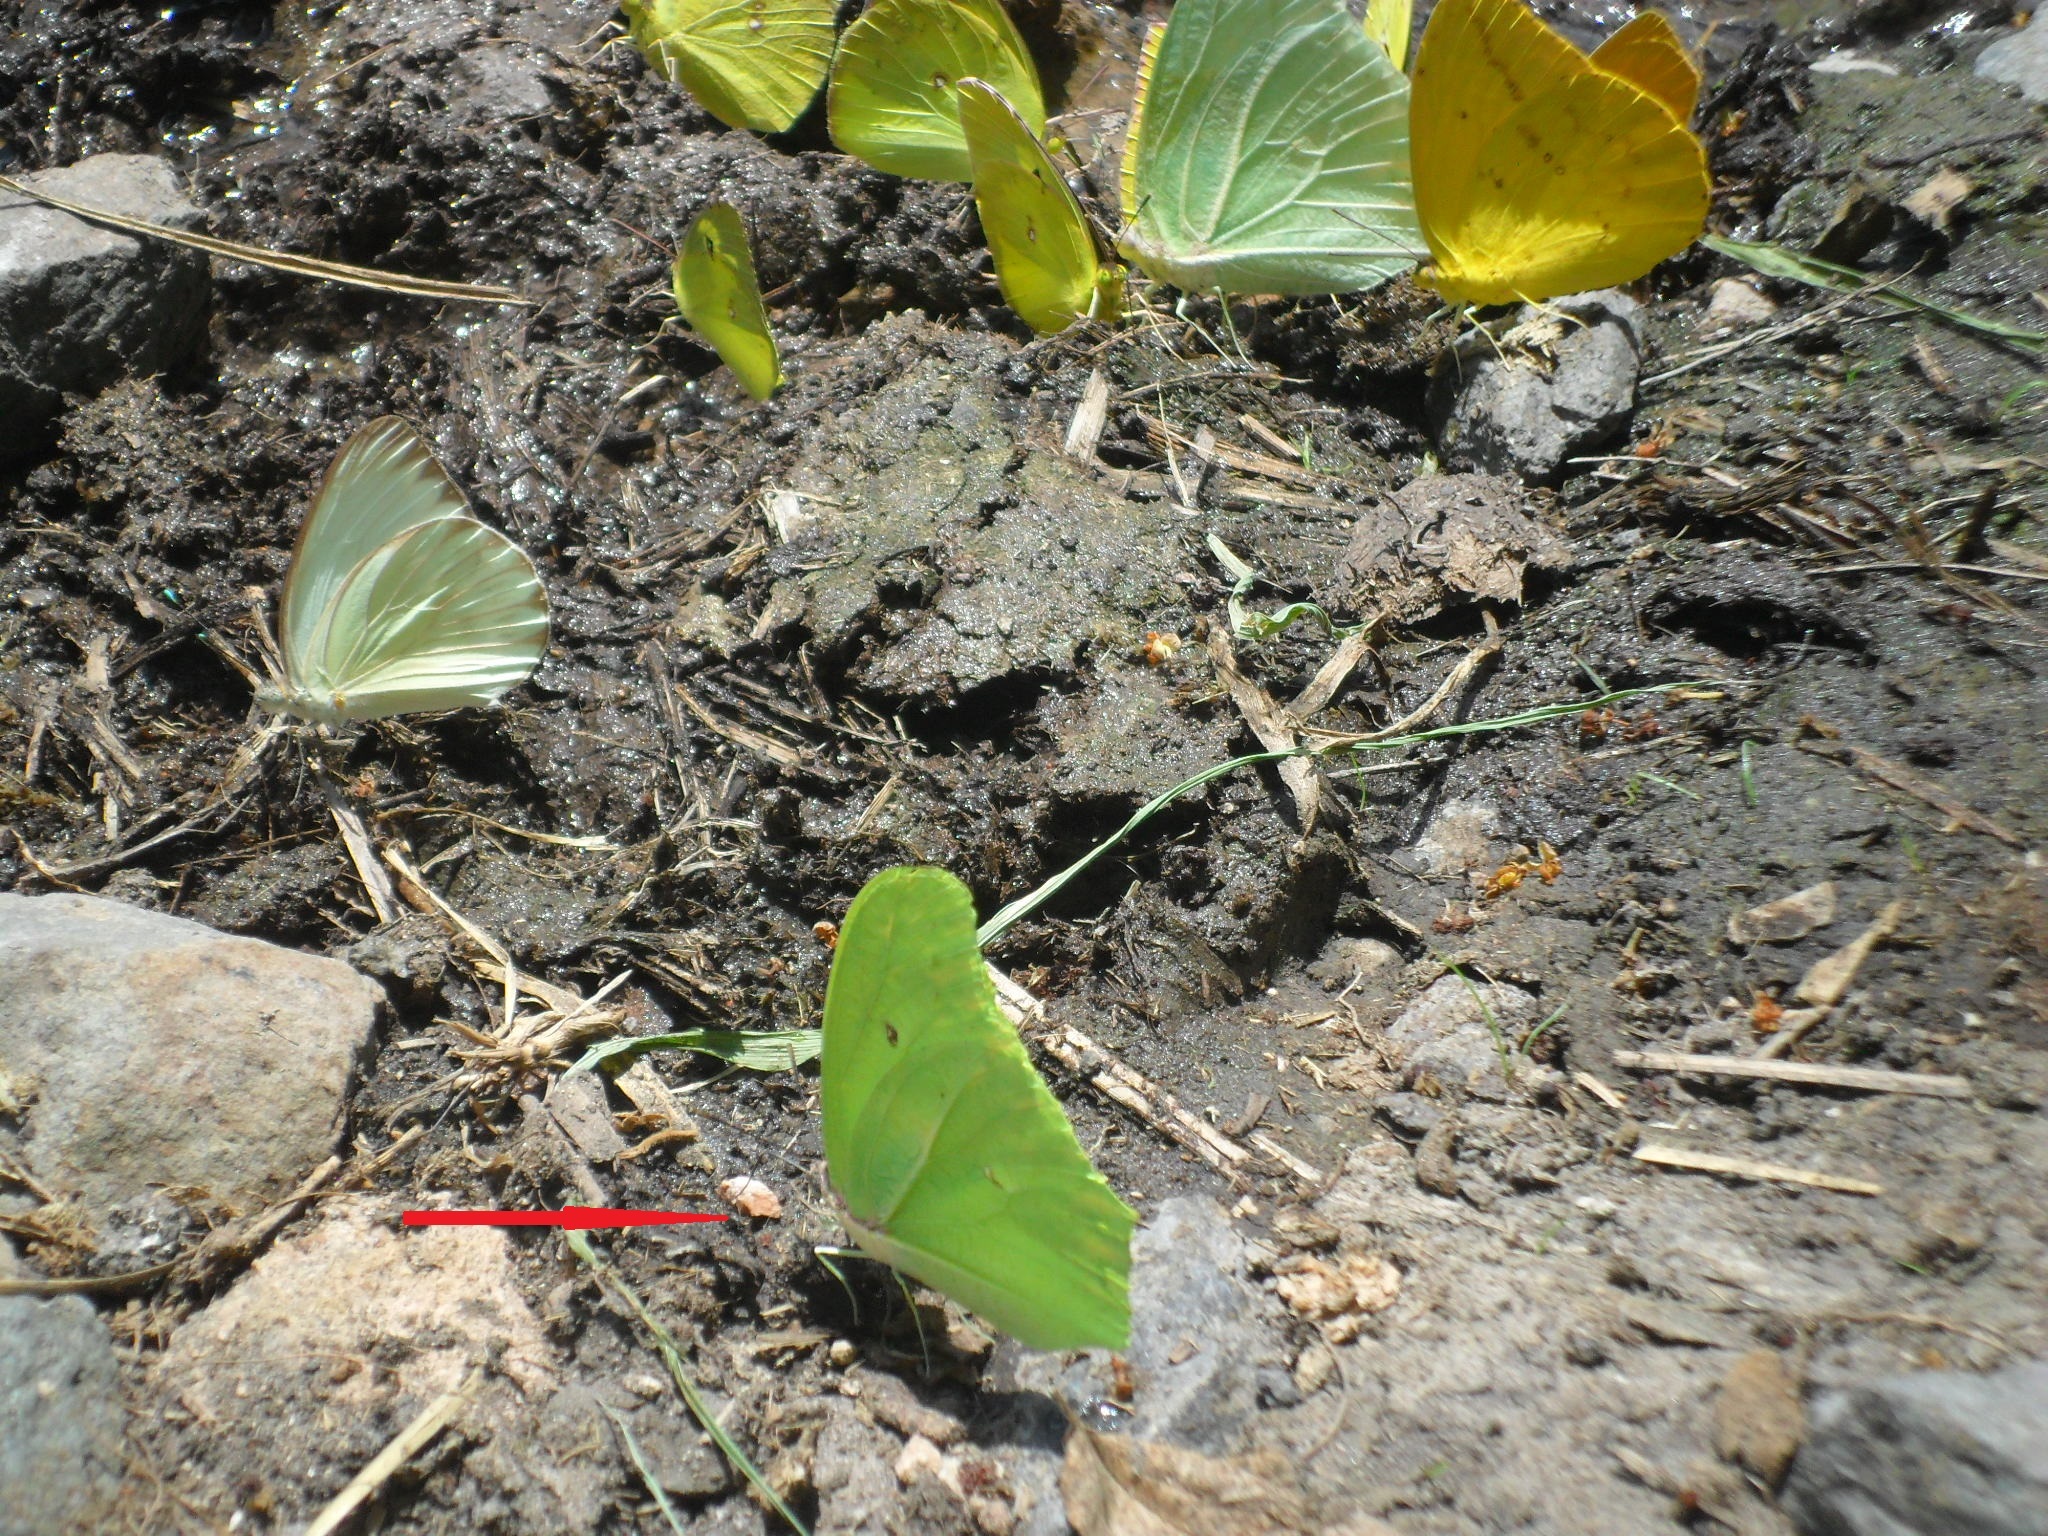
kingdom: Animalia
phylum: Arthropoda
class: Insecta
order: Lepidoptera
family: Pieridae
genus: Anteos
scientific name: Anteos maerula
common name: Angled sulphur
